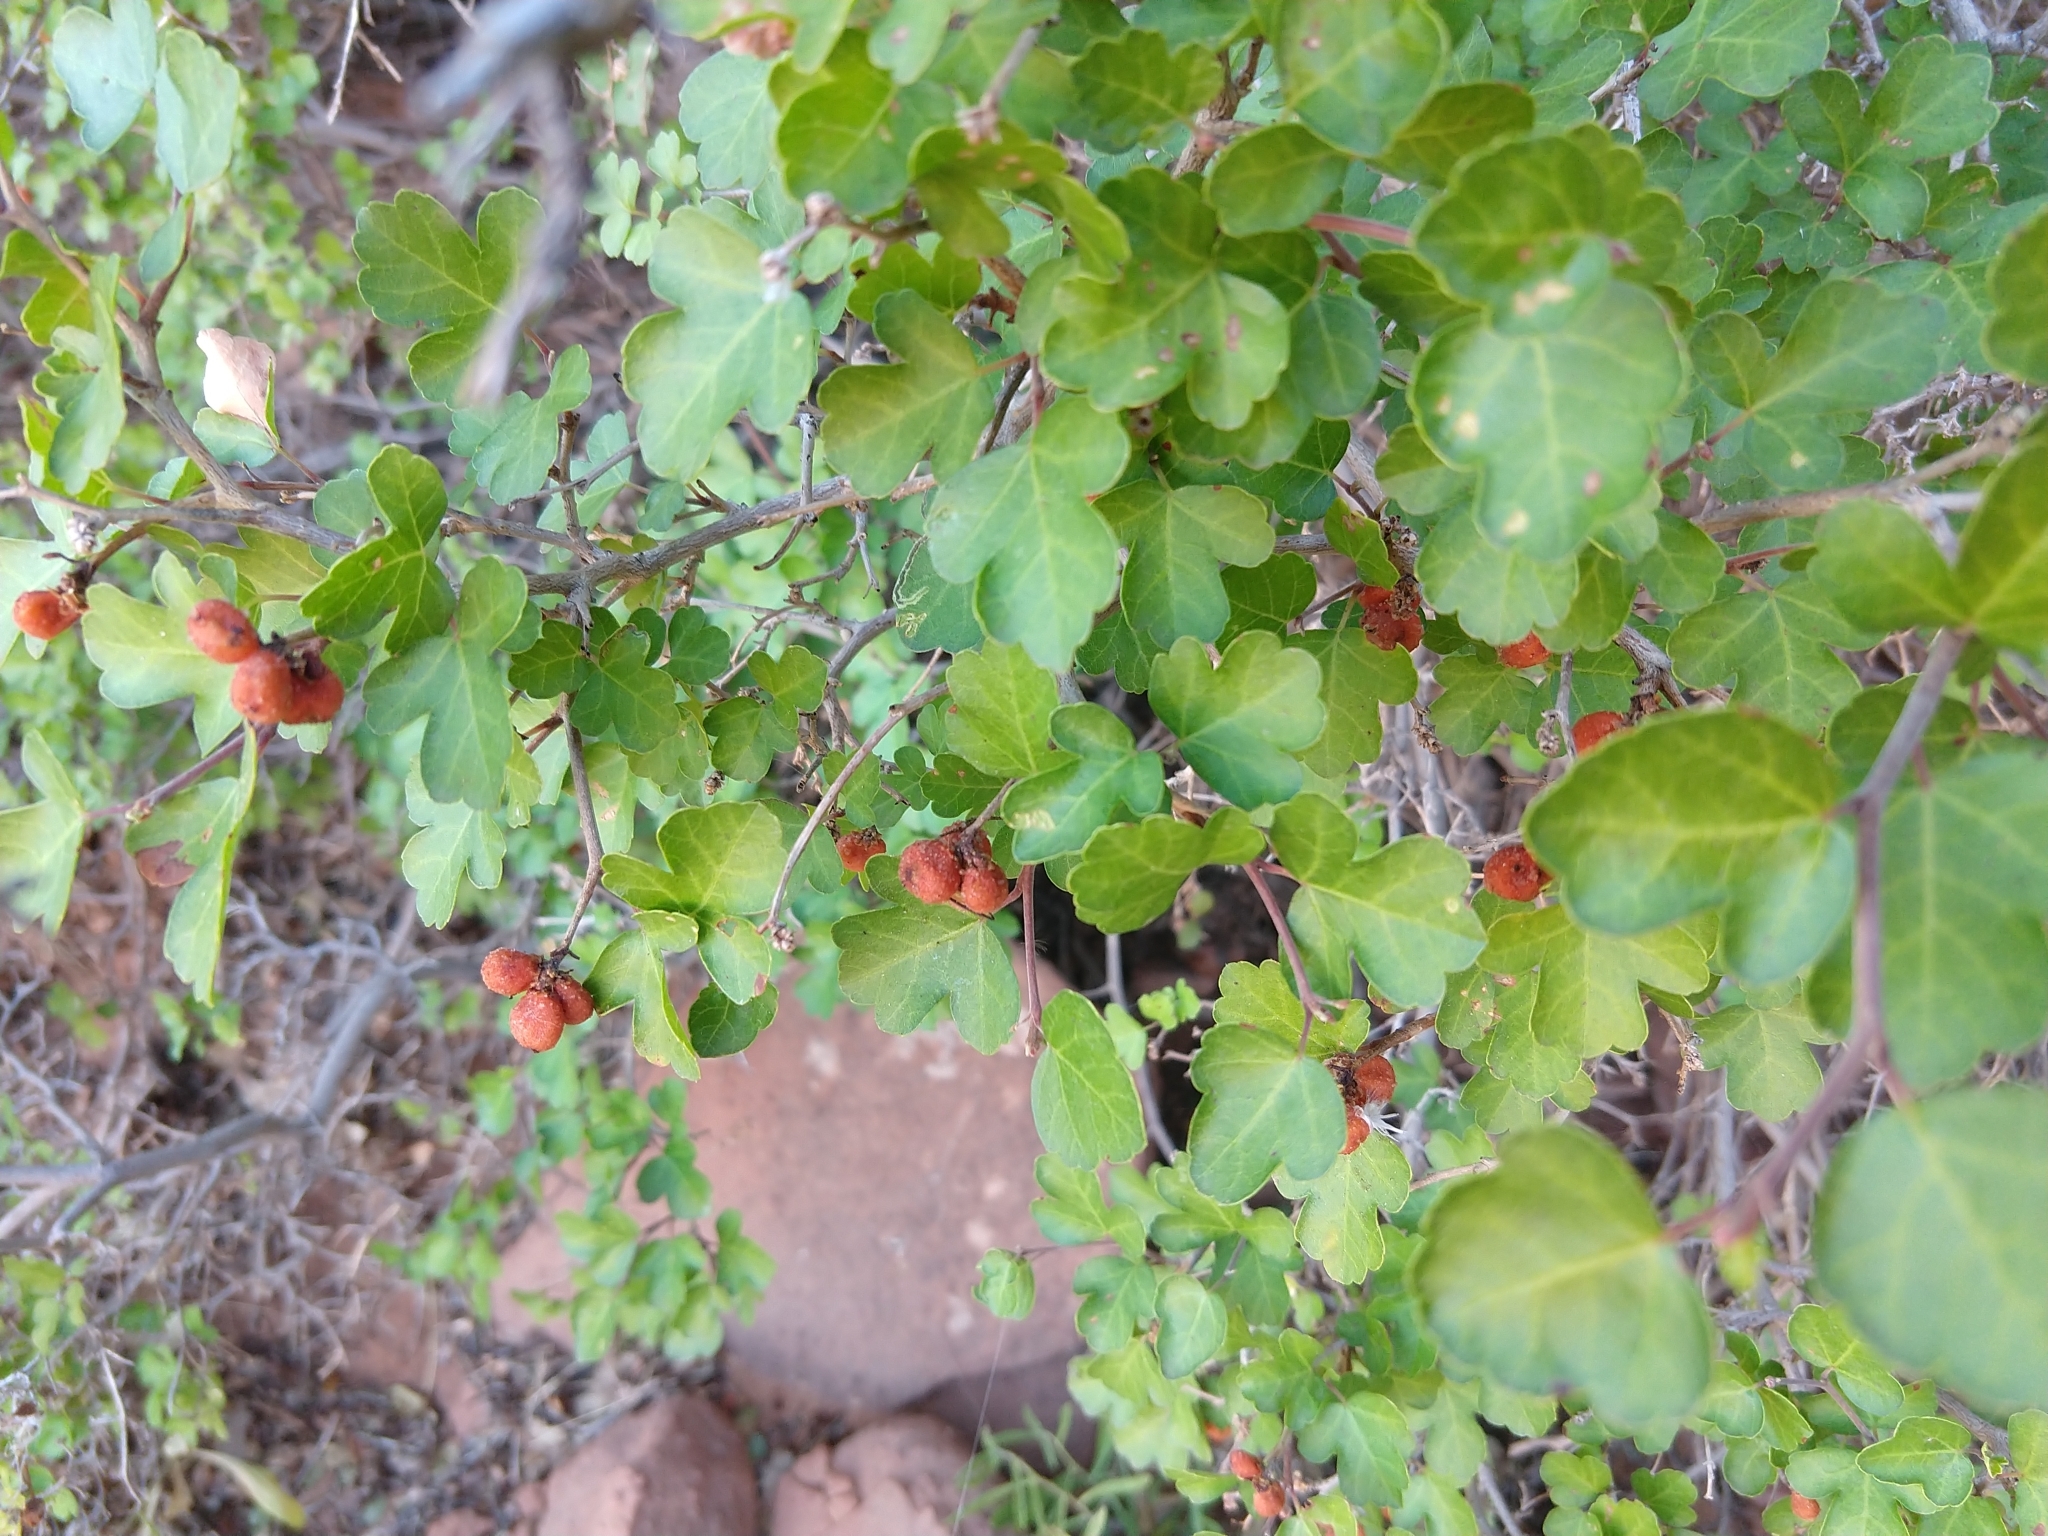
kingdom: Plantae
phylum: Tracheophyta
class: Magnoliopsida
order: Sapindales
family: Anacardiaceae
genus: Rhus
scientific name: Rhus aromatica
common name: Aromatic sumac
